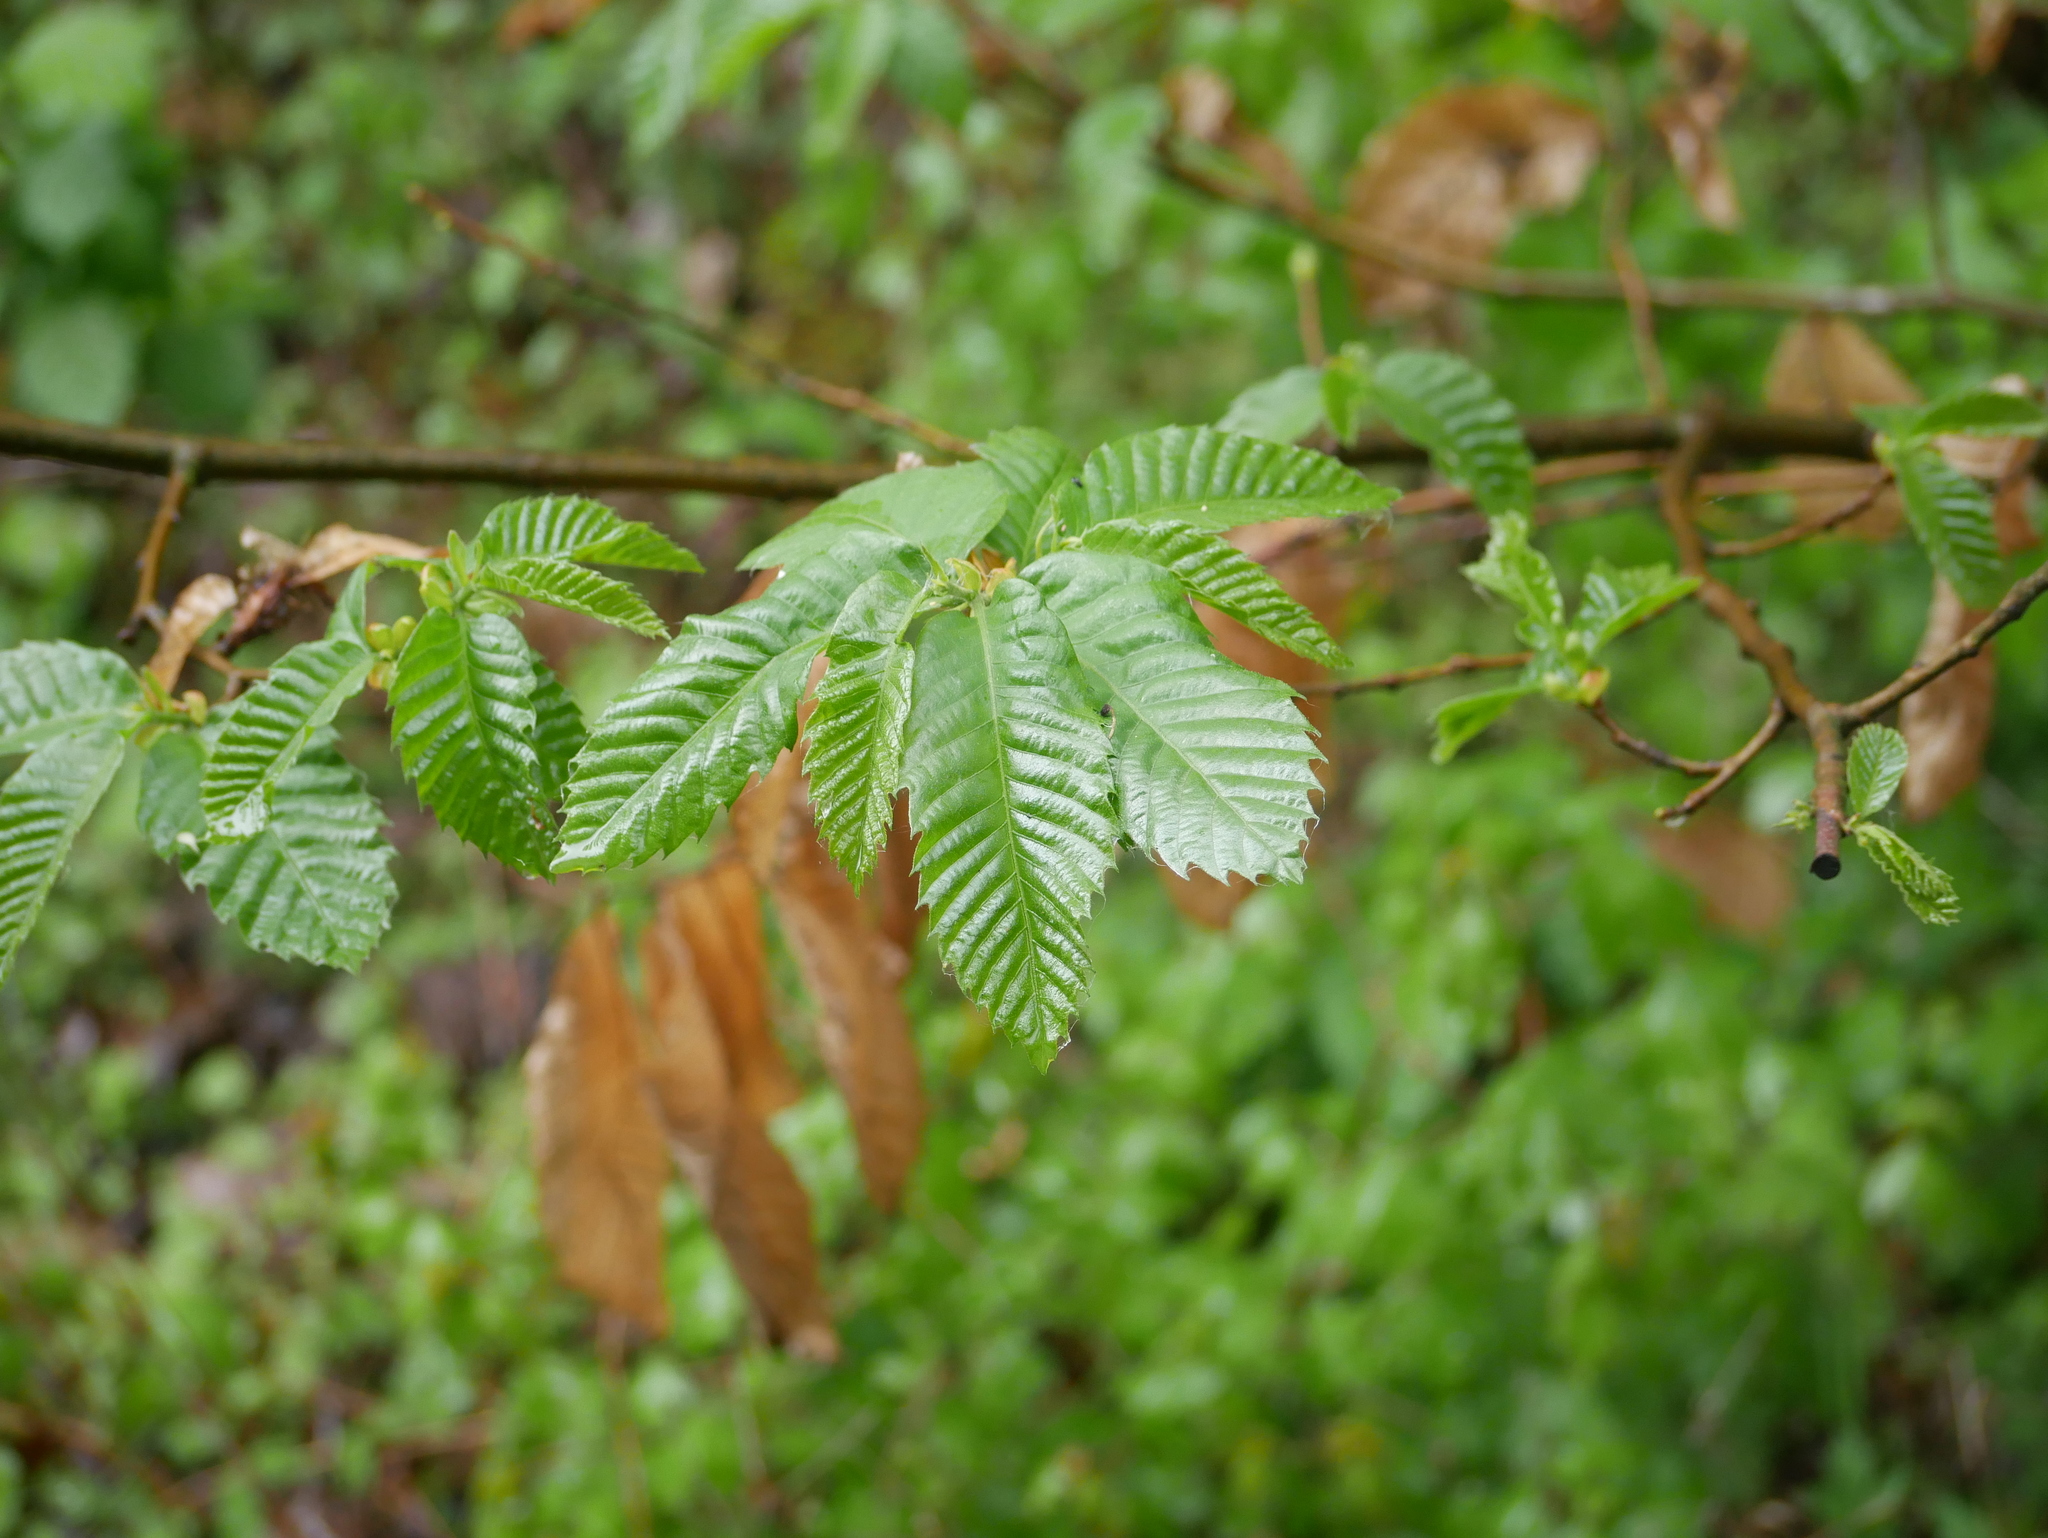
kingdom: Plantae
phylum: Tracheophyta
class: Magnoliopsida
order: Fagales
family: Betulaceae
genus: Carpinus
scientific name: Carpinus betulus
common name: Hornbeam
